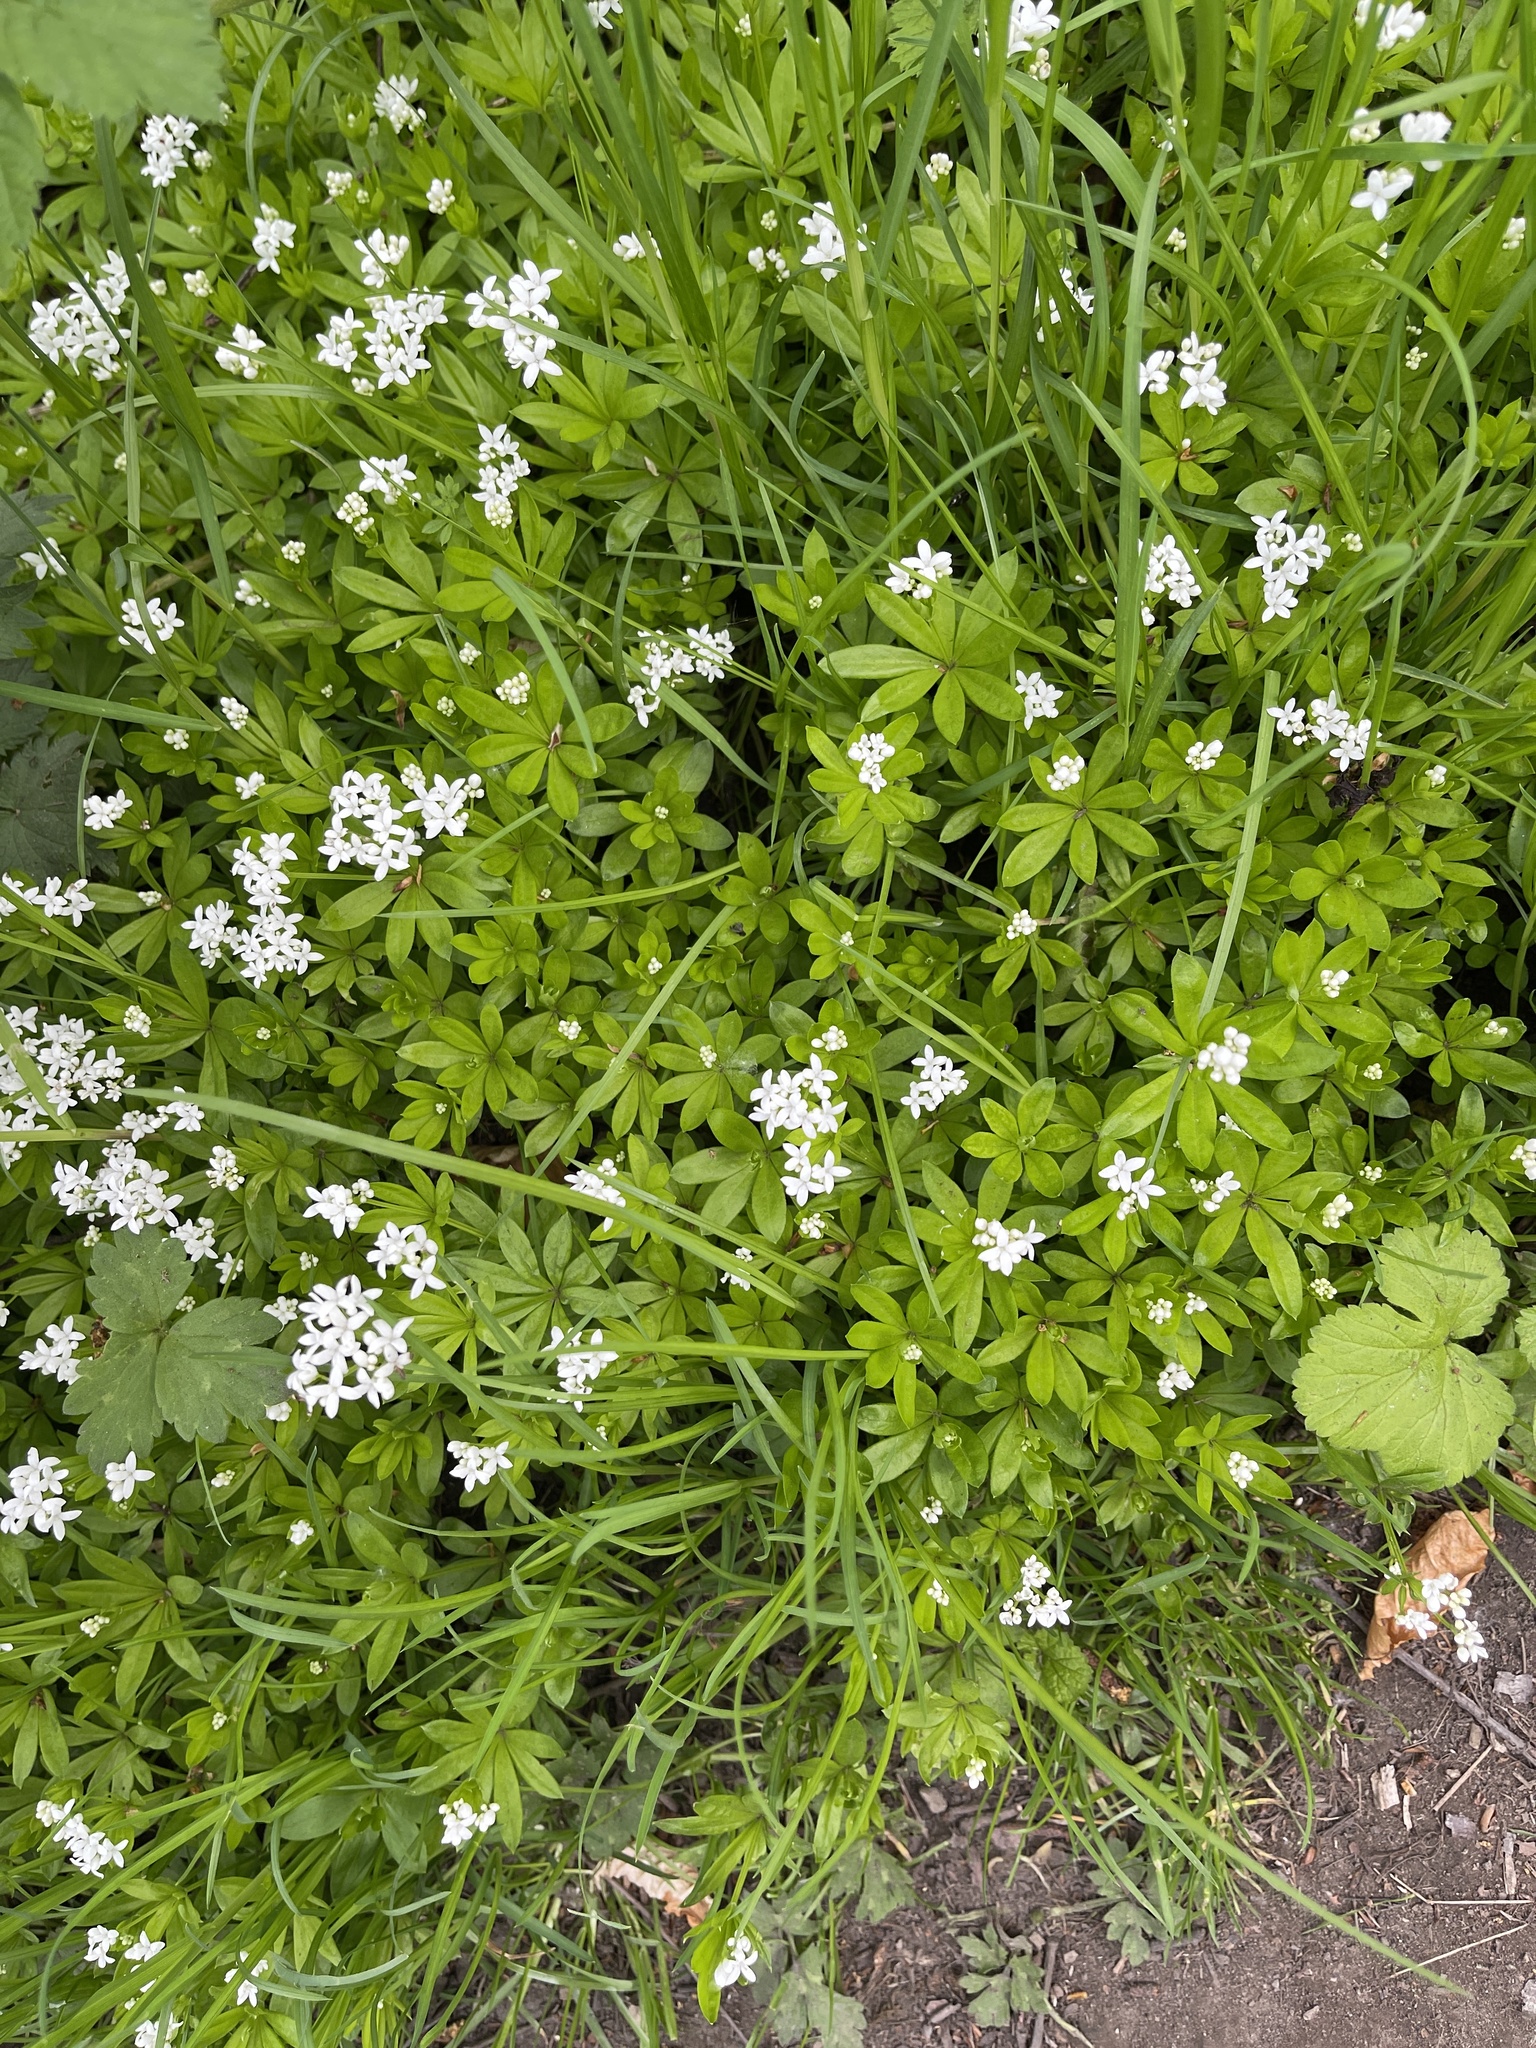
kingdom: Plantae
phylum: Tracheophyta
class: Magnoliopsida
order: Gentianales
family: Rubiaceae
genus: Galium
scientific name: Galium odoratum
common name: Sweet woodruff
